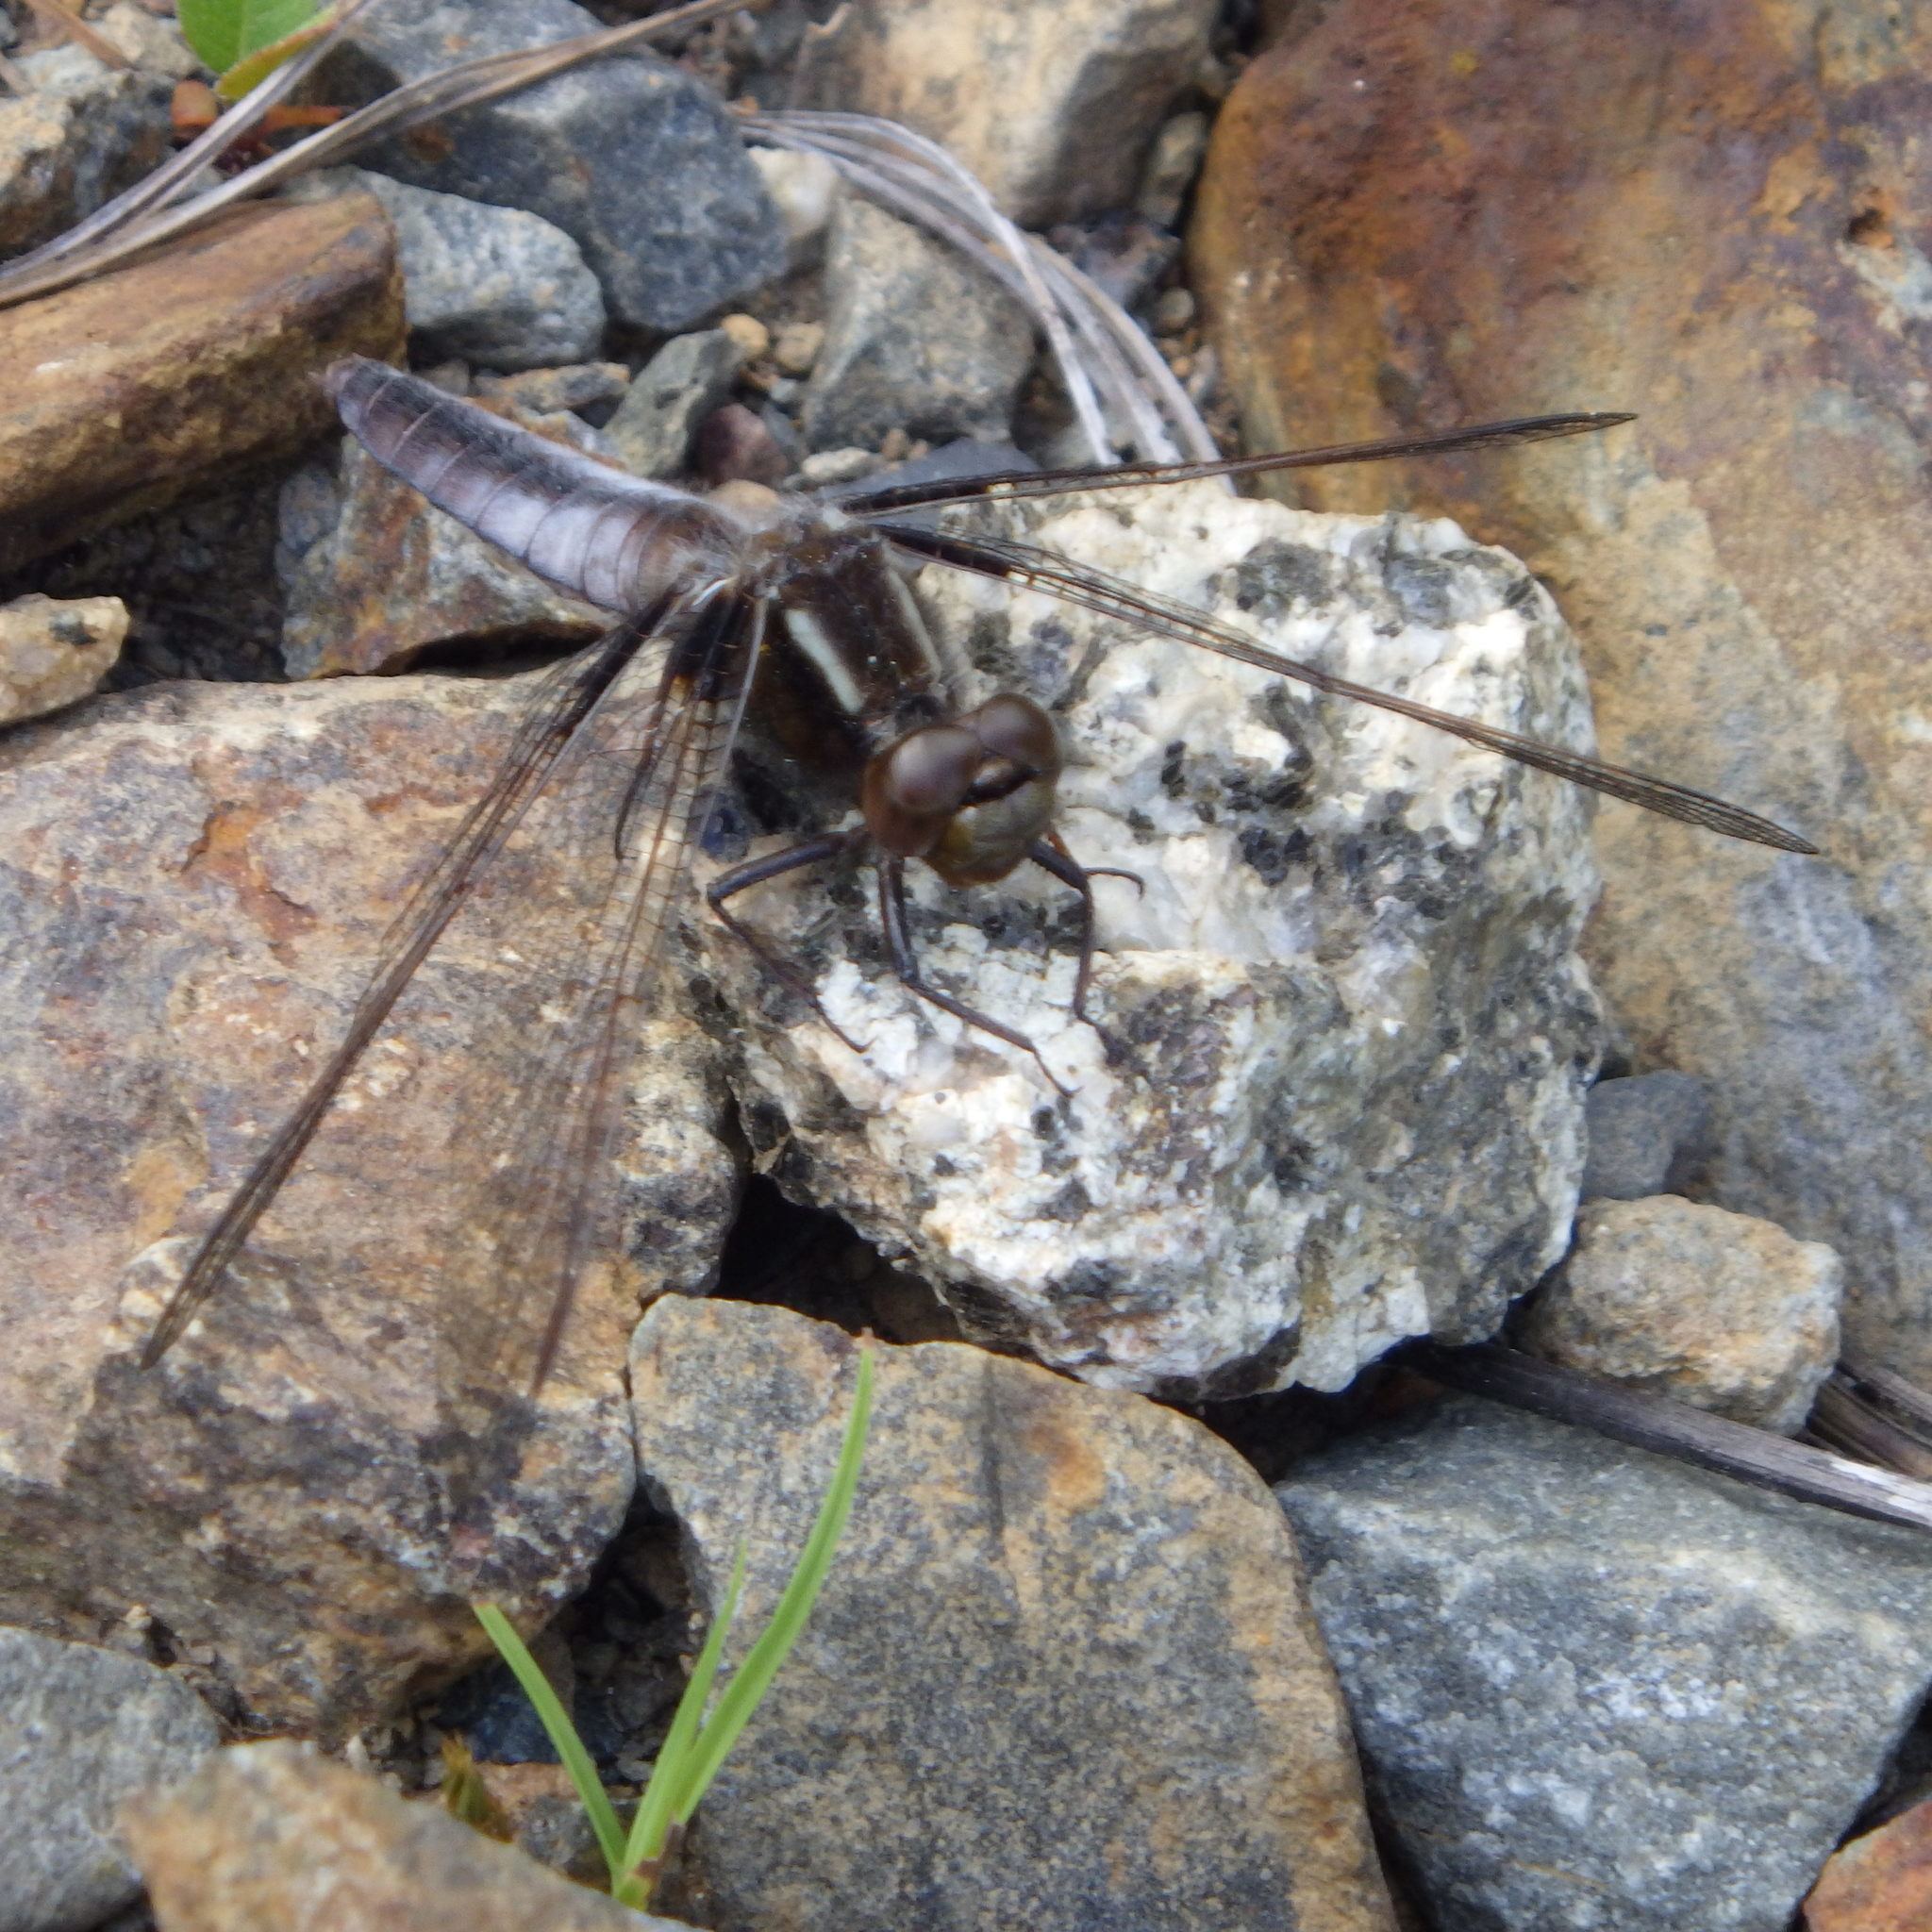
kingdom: Animalia
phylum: Arthropoda
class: Insecta
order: Odonata
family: Libellulidae
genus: Ladona
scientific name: Ladona exusta
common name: Libellule embrasée
